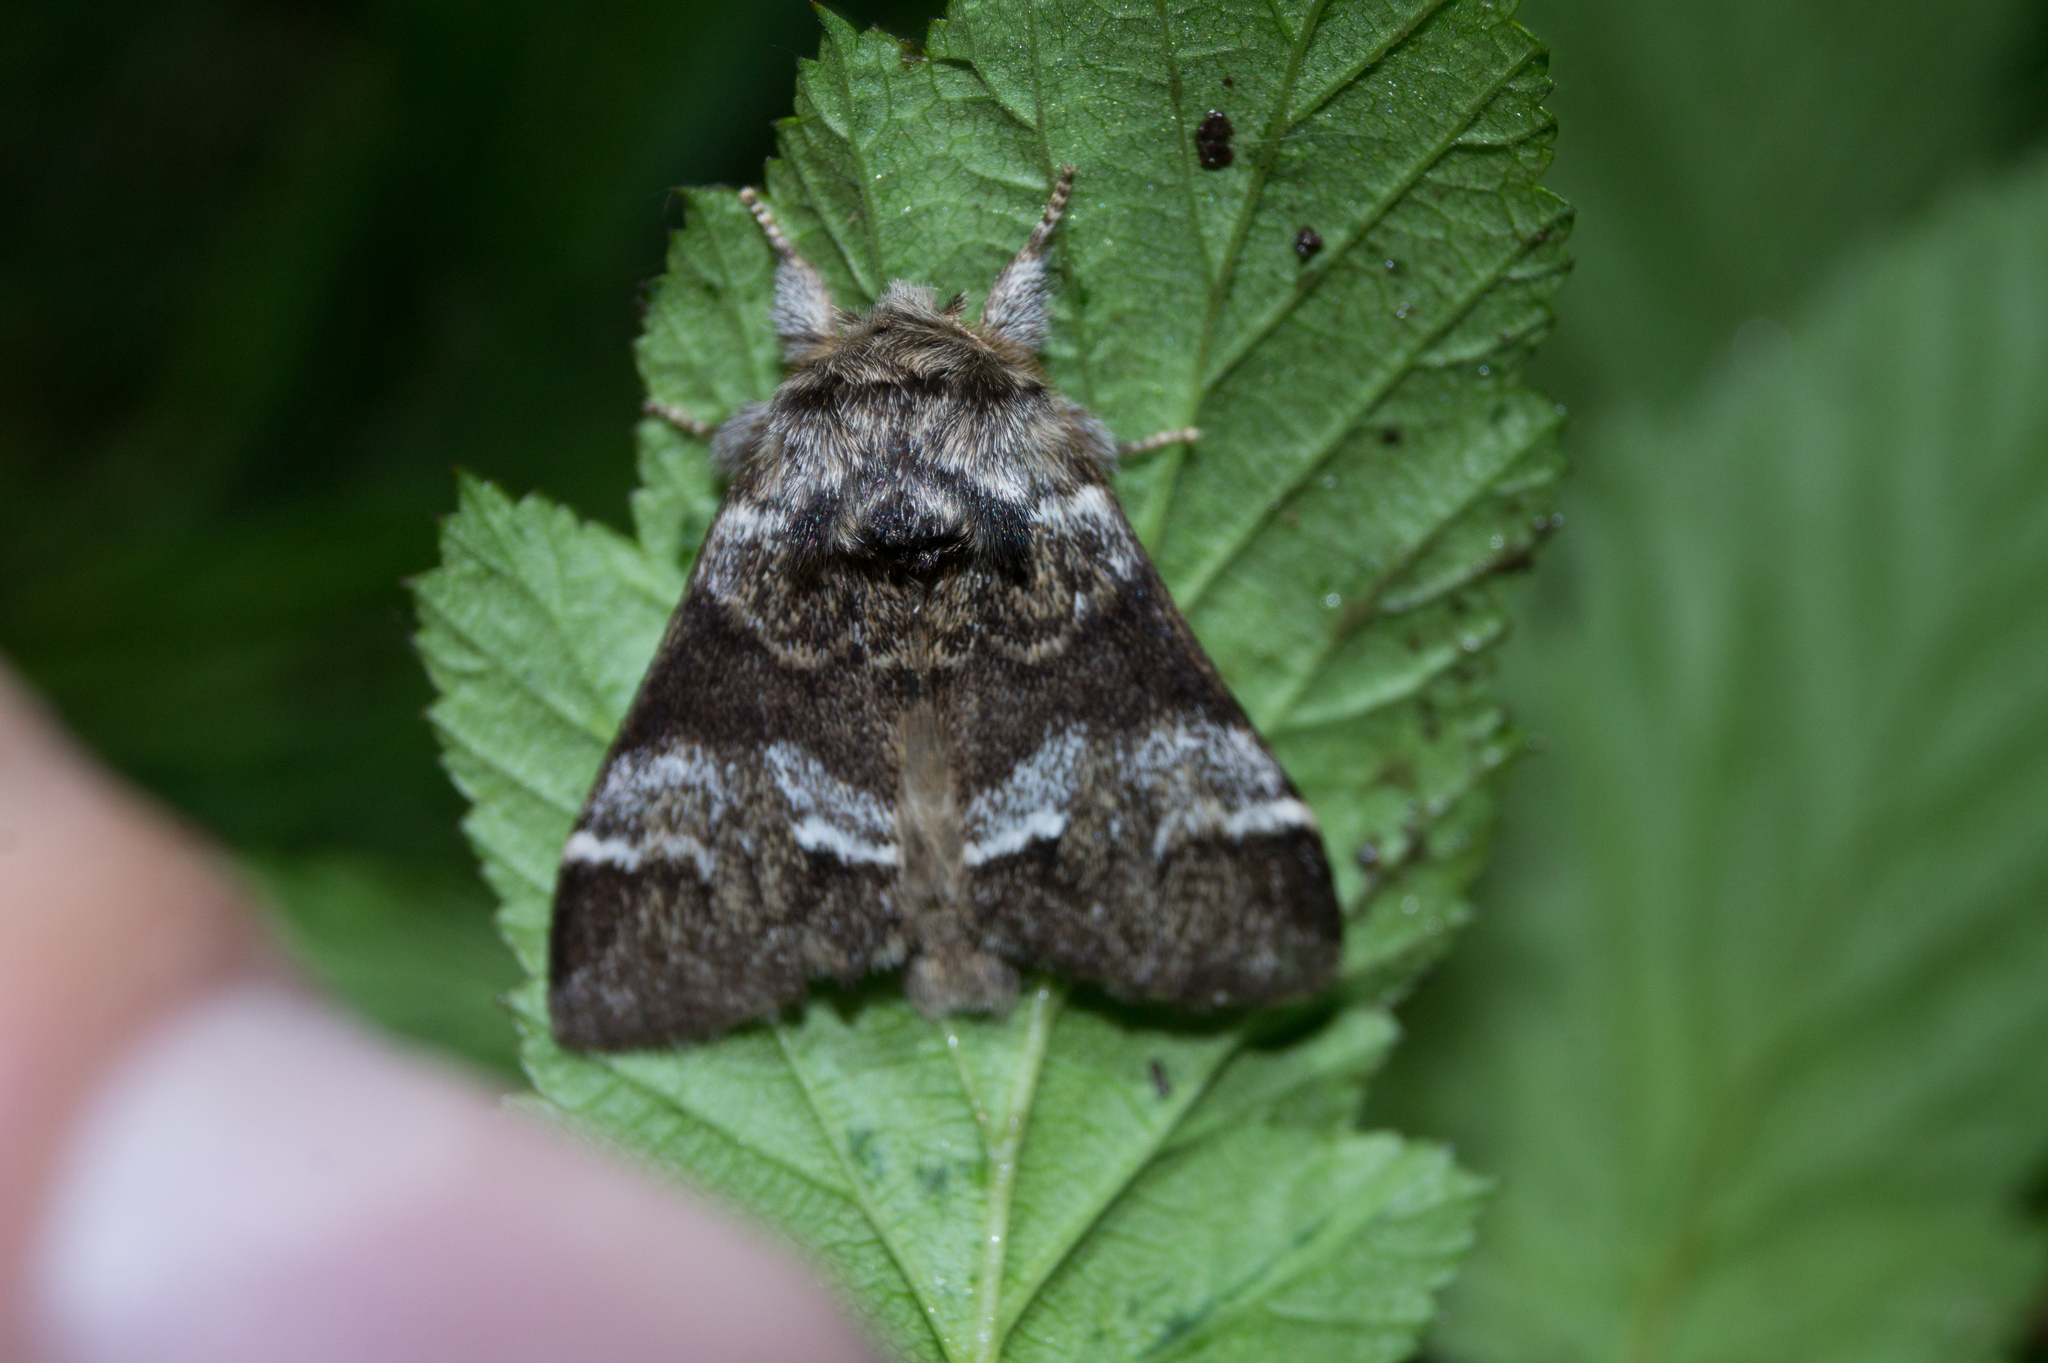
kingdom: Animalia
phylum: Arthropoda
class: Insecta
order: Lepidoptera
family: Notodontidae
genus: Drymonia
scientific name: Drymonia dodonaea
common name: Marbled brown
